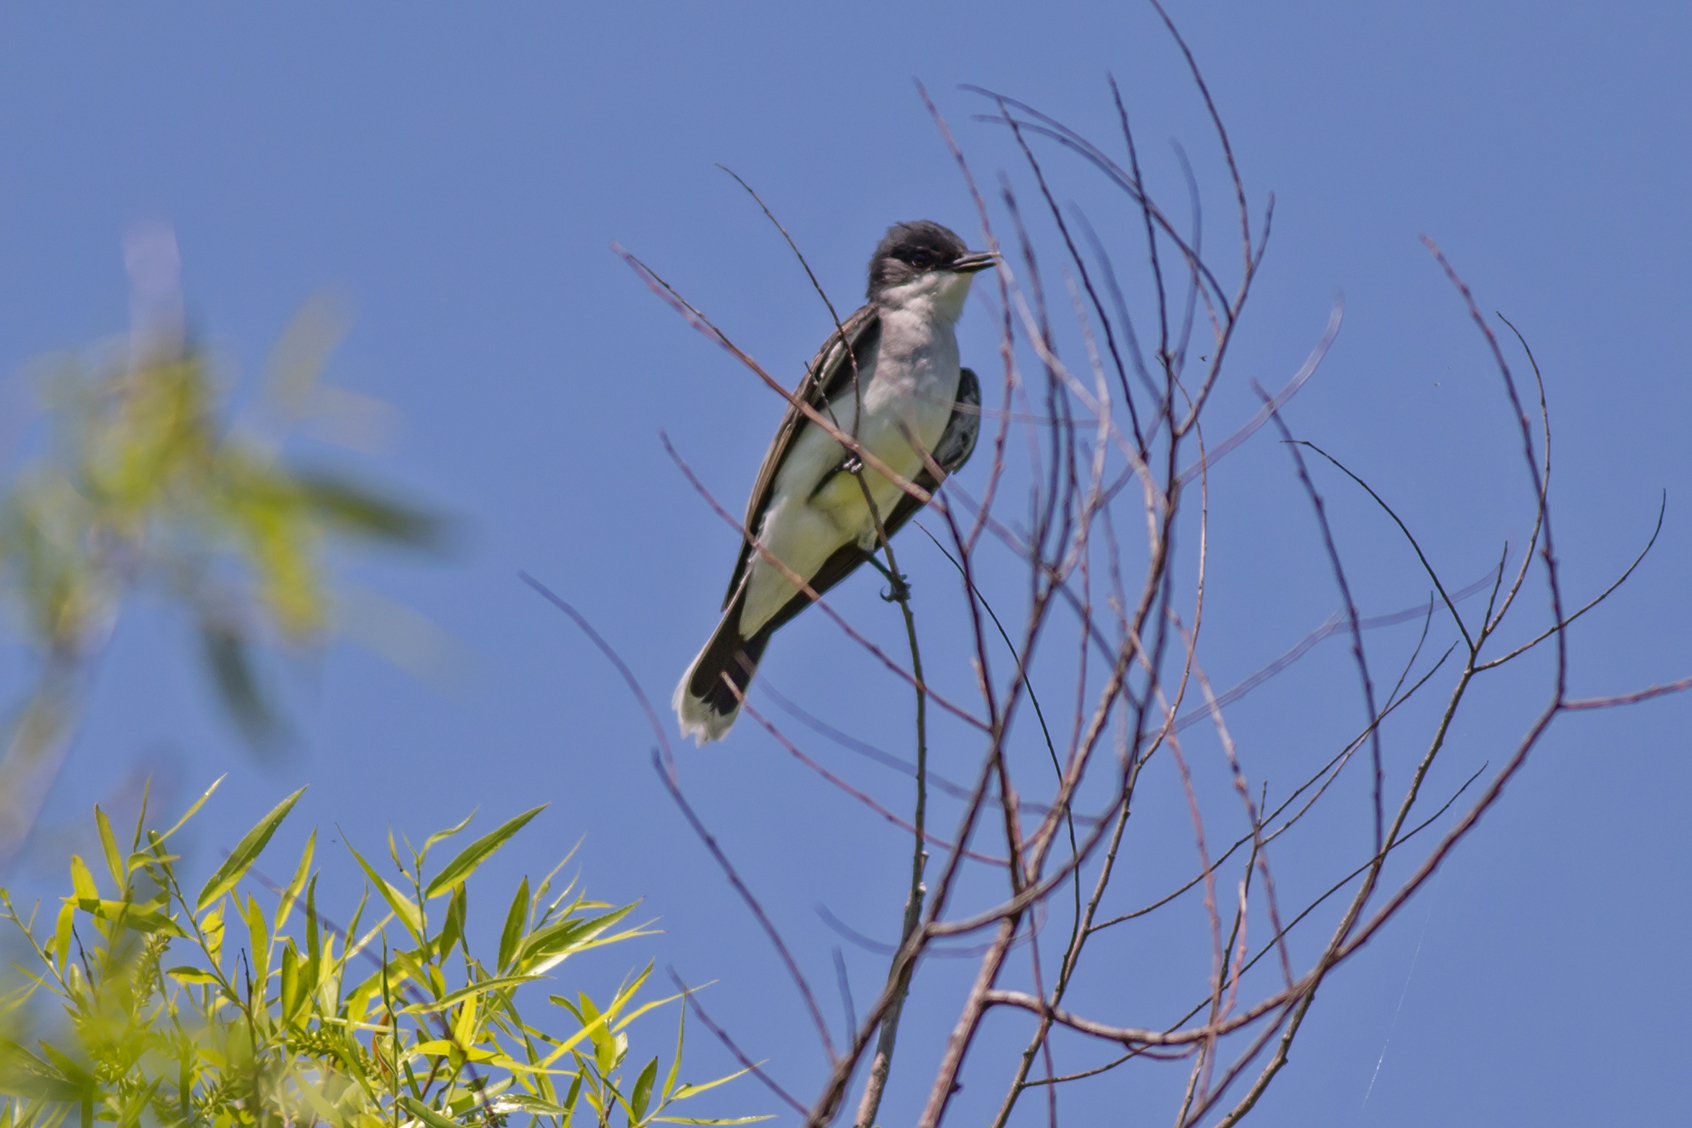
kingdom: Animalia
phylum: Chordata
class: Aves
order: Passeriformes
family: Tyrannidae
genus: Tyrannus
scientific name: Tyrannus tyrannus
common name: Eastern kingbird
